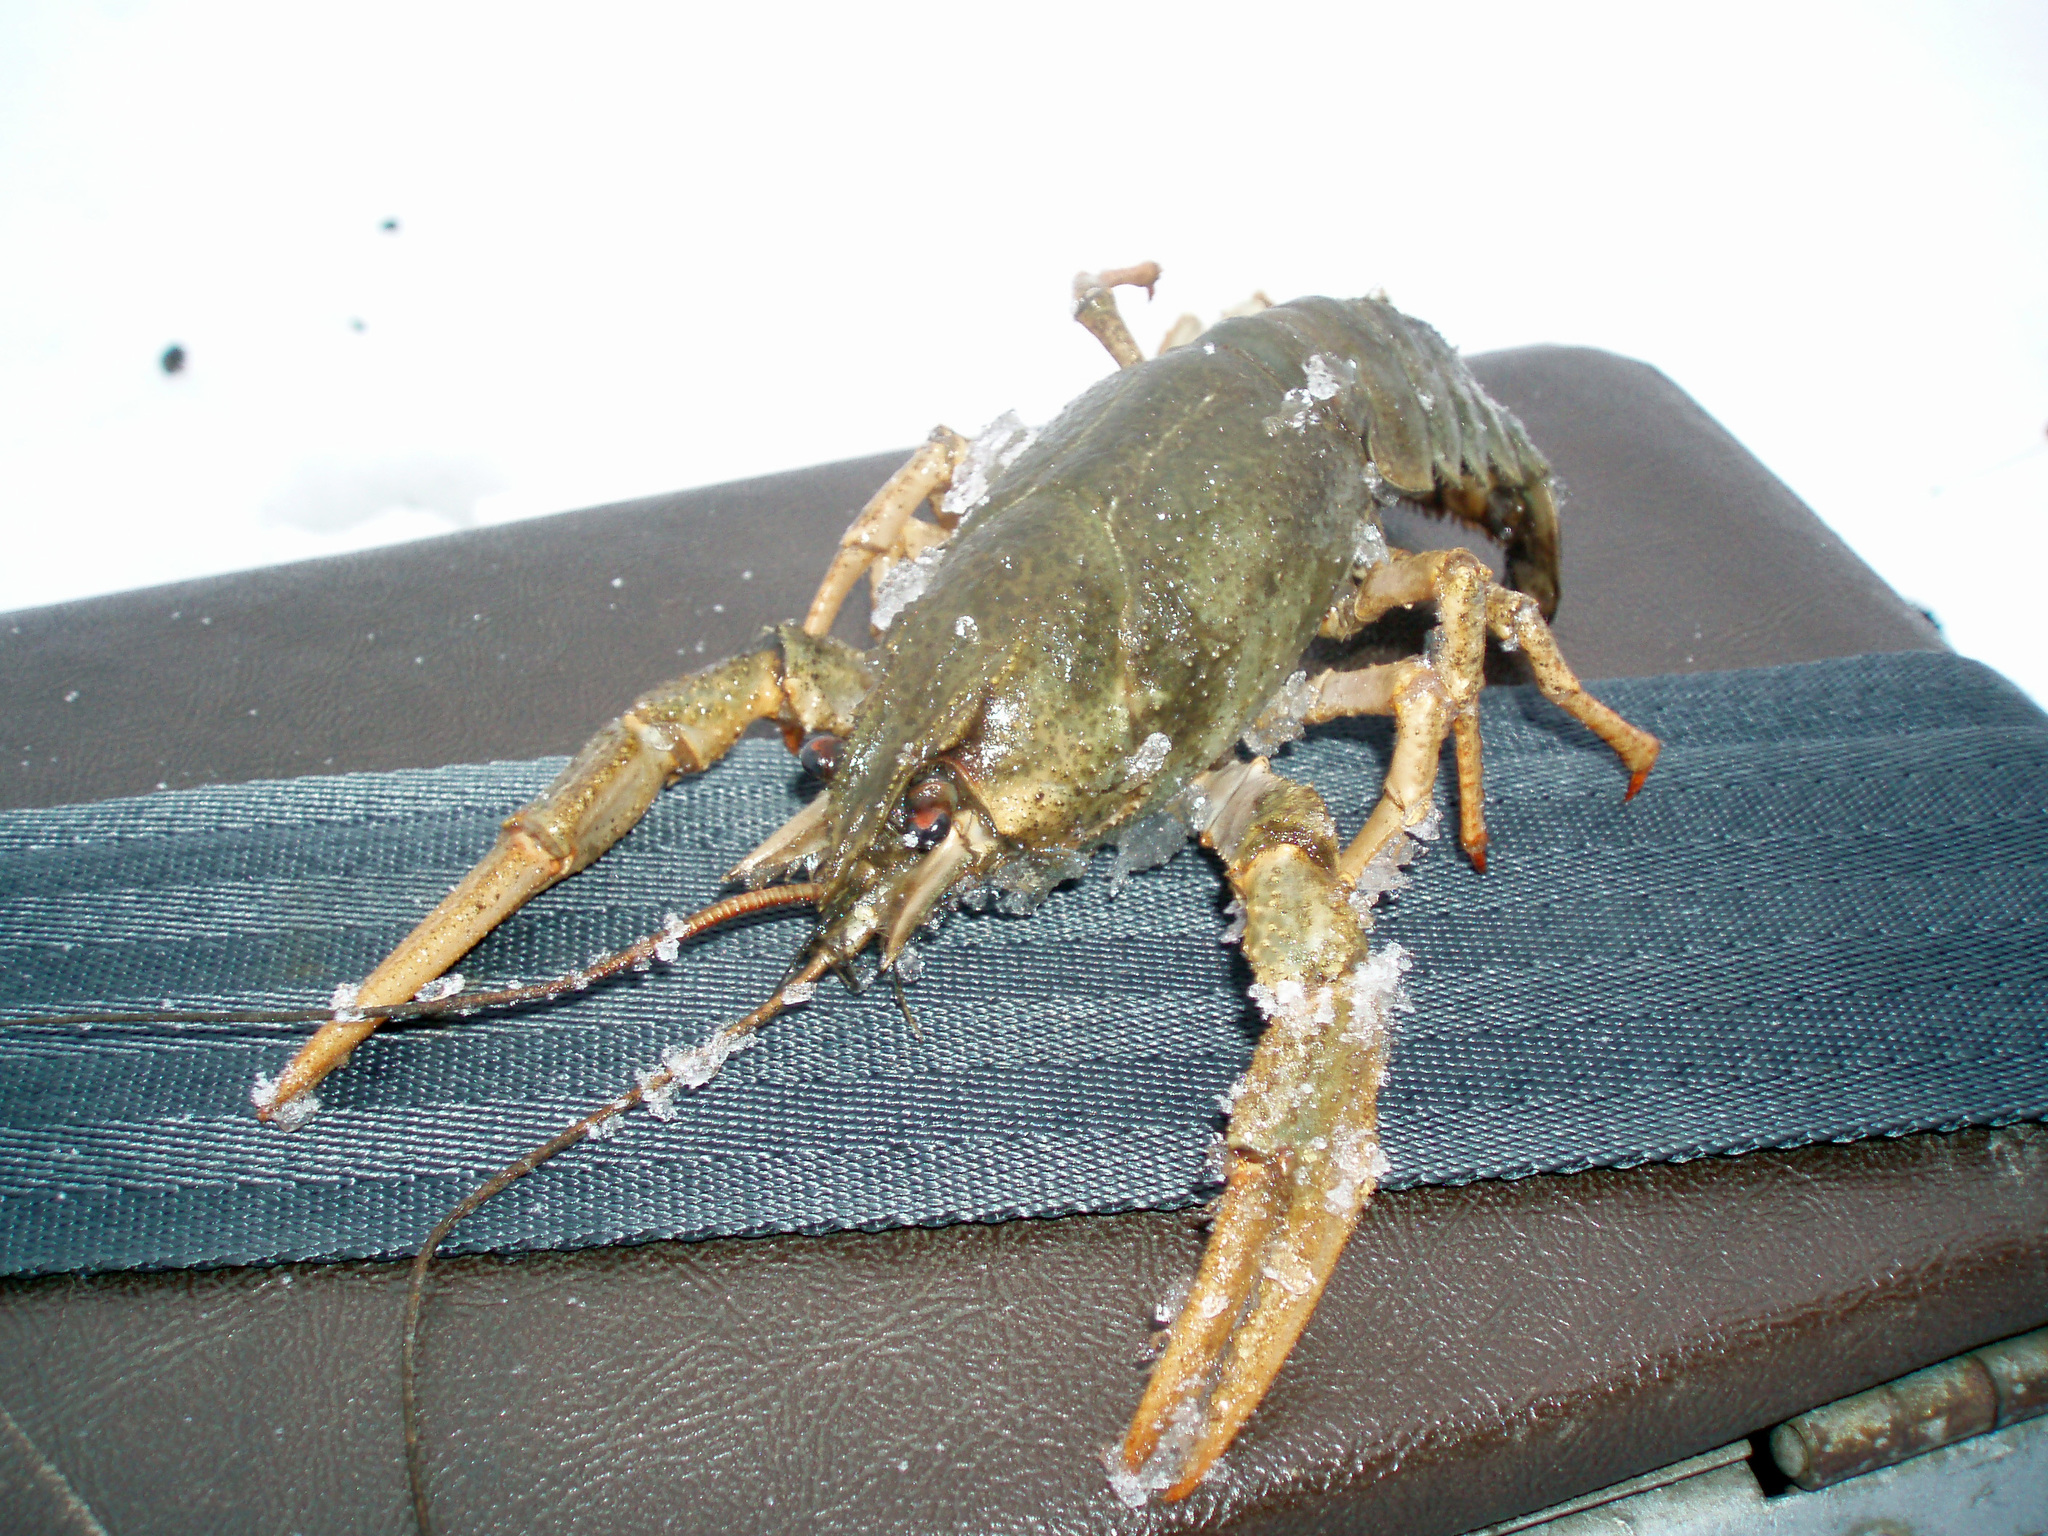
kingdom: Animalia
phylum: Arthropoda
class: Malacostraca
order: Decapoda
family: Astacidae
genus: Pontastacus
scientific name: Pontastacus leptodactylus
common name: Danube crayfish
